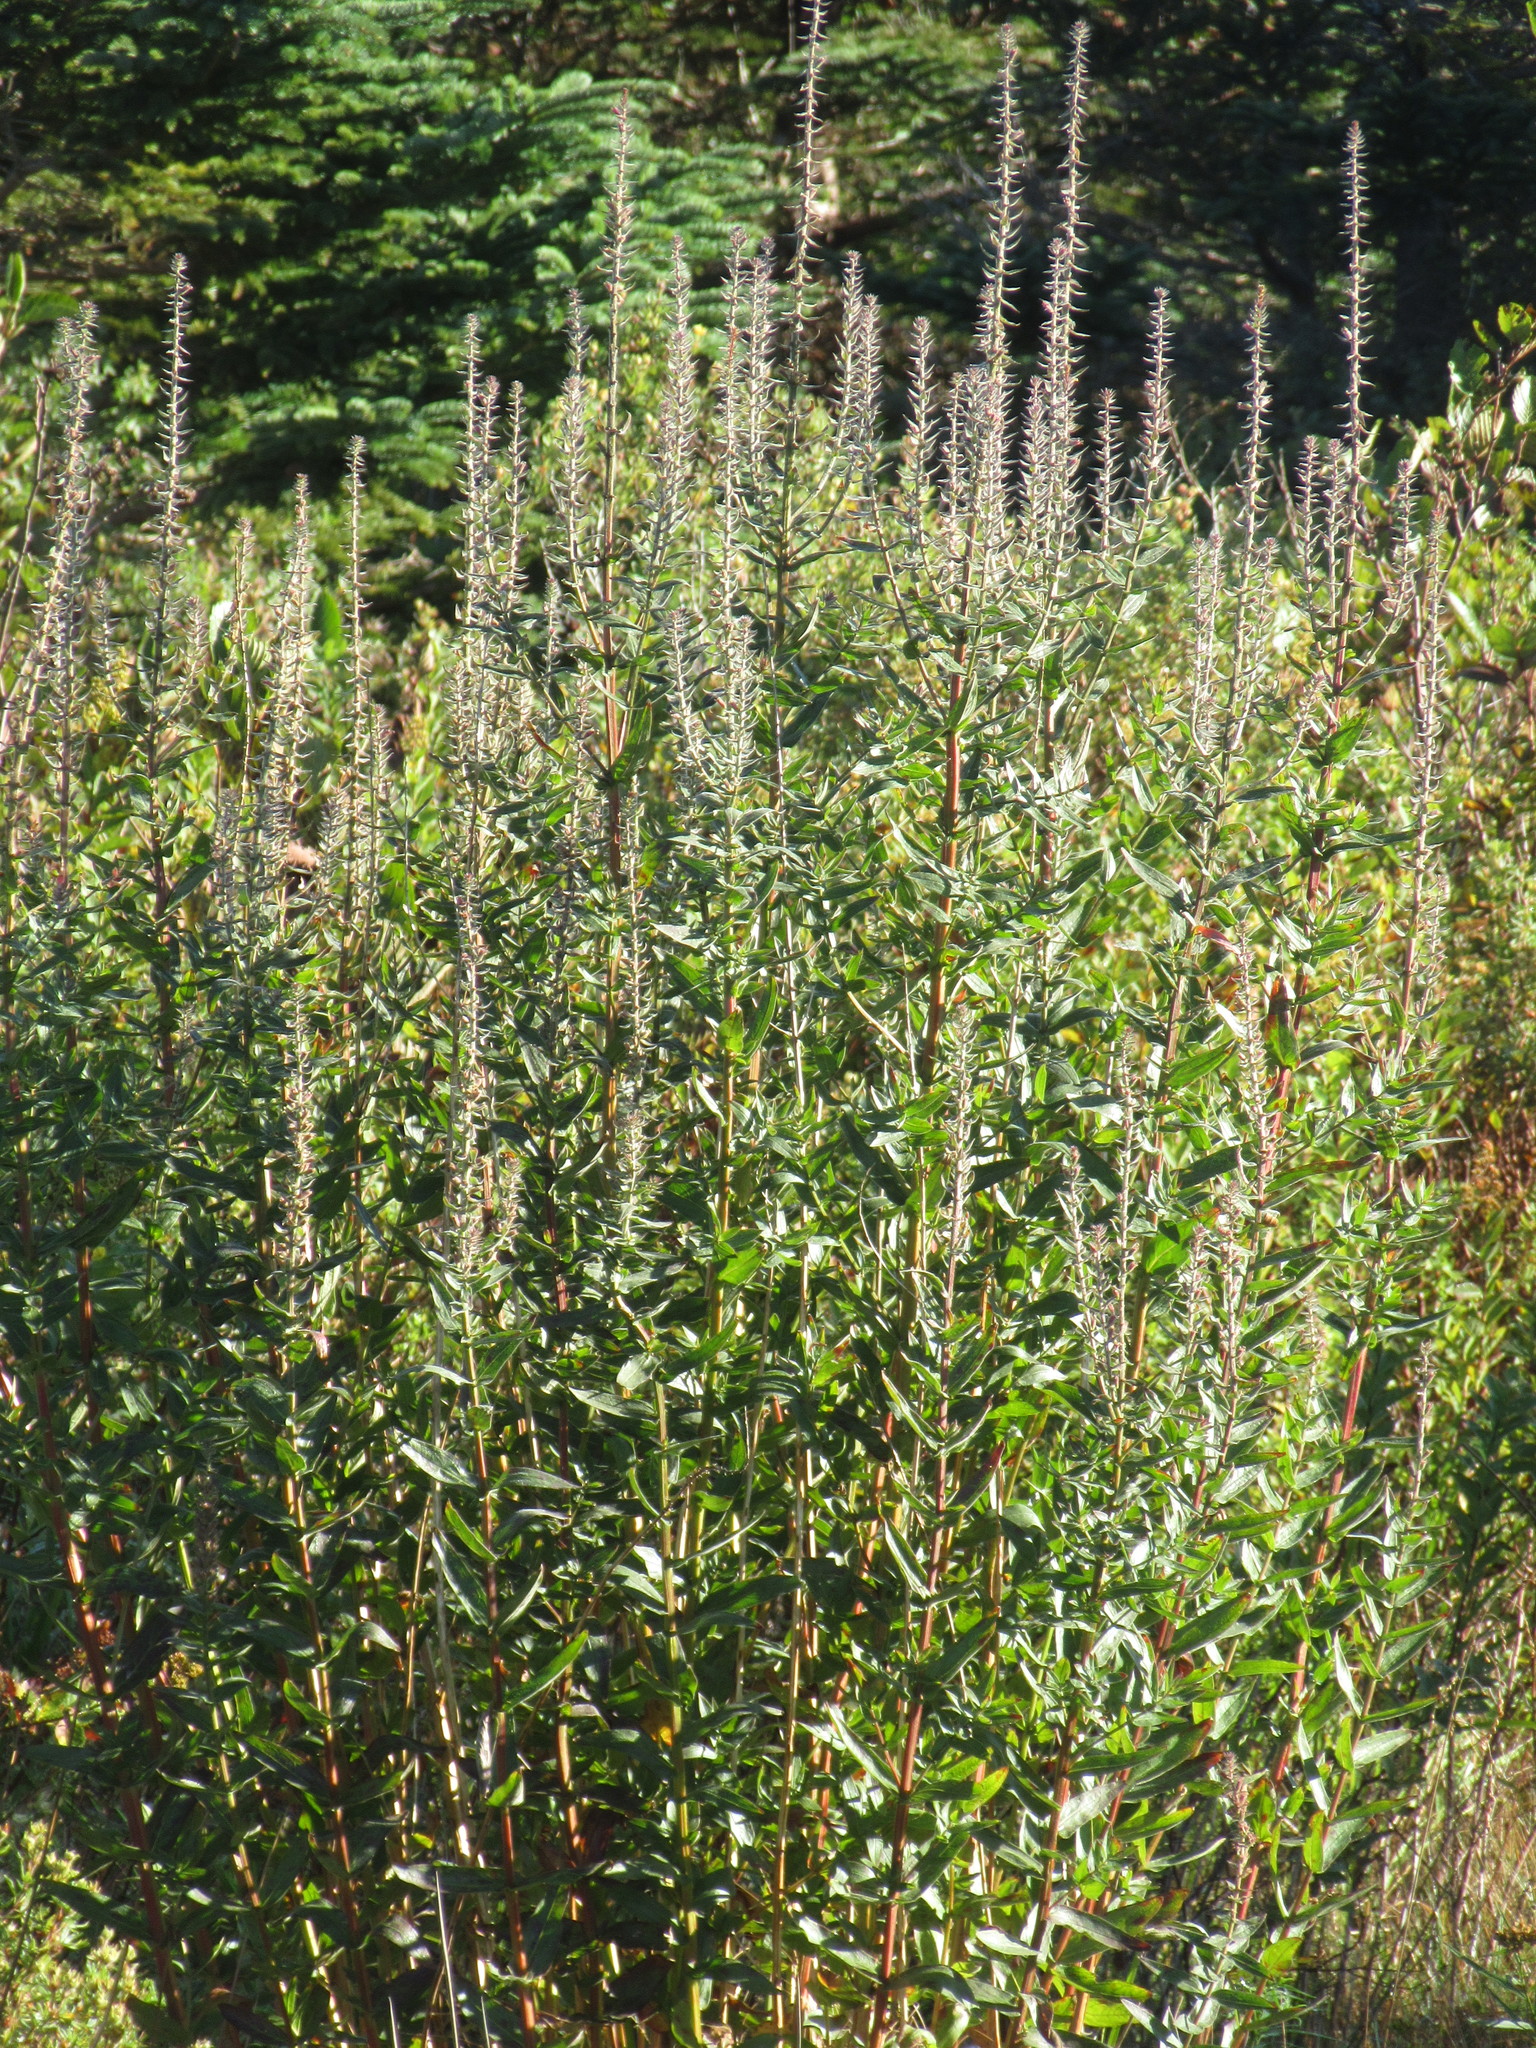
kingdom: Plantae
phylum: Tracheophyta
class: Magnoliopsida
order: Myrtales
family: Lythraceae
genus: Lythrum
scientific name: Lythrum salicaria
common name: Purple loosestrife
